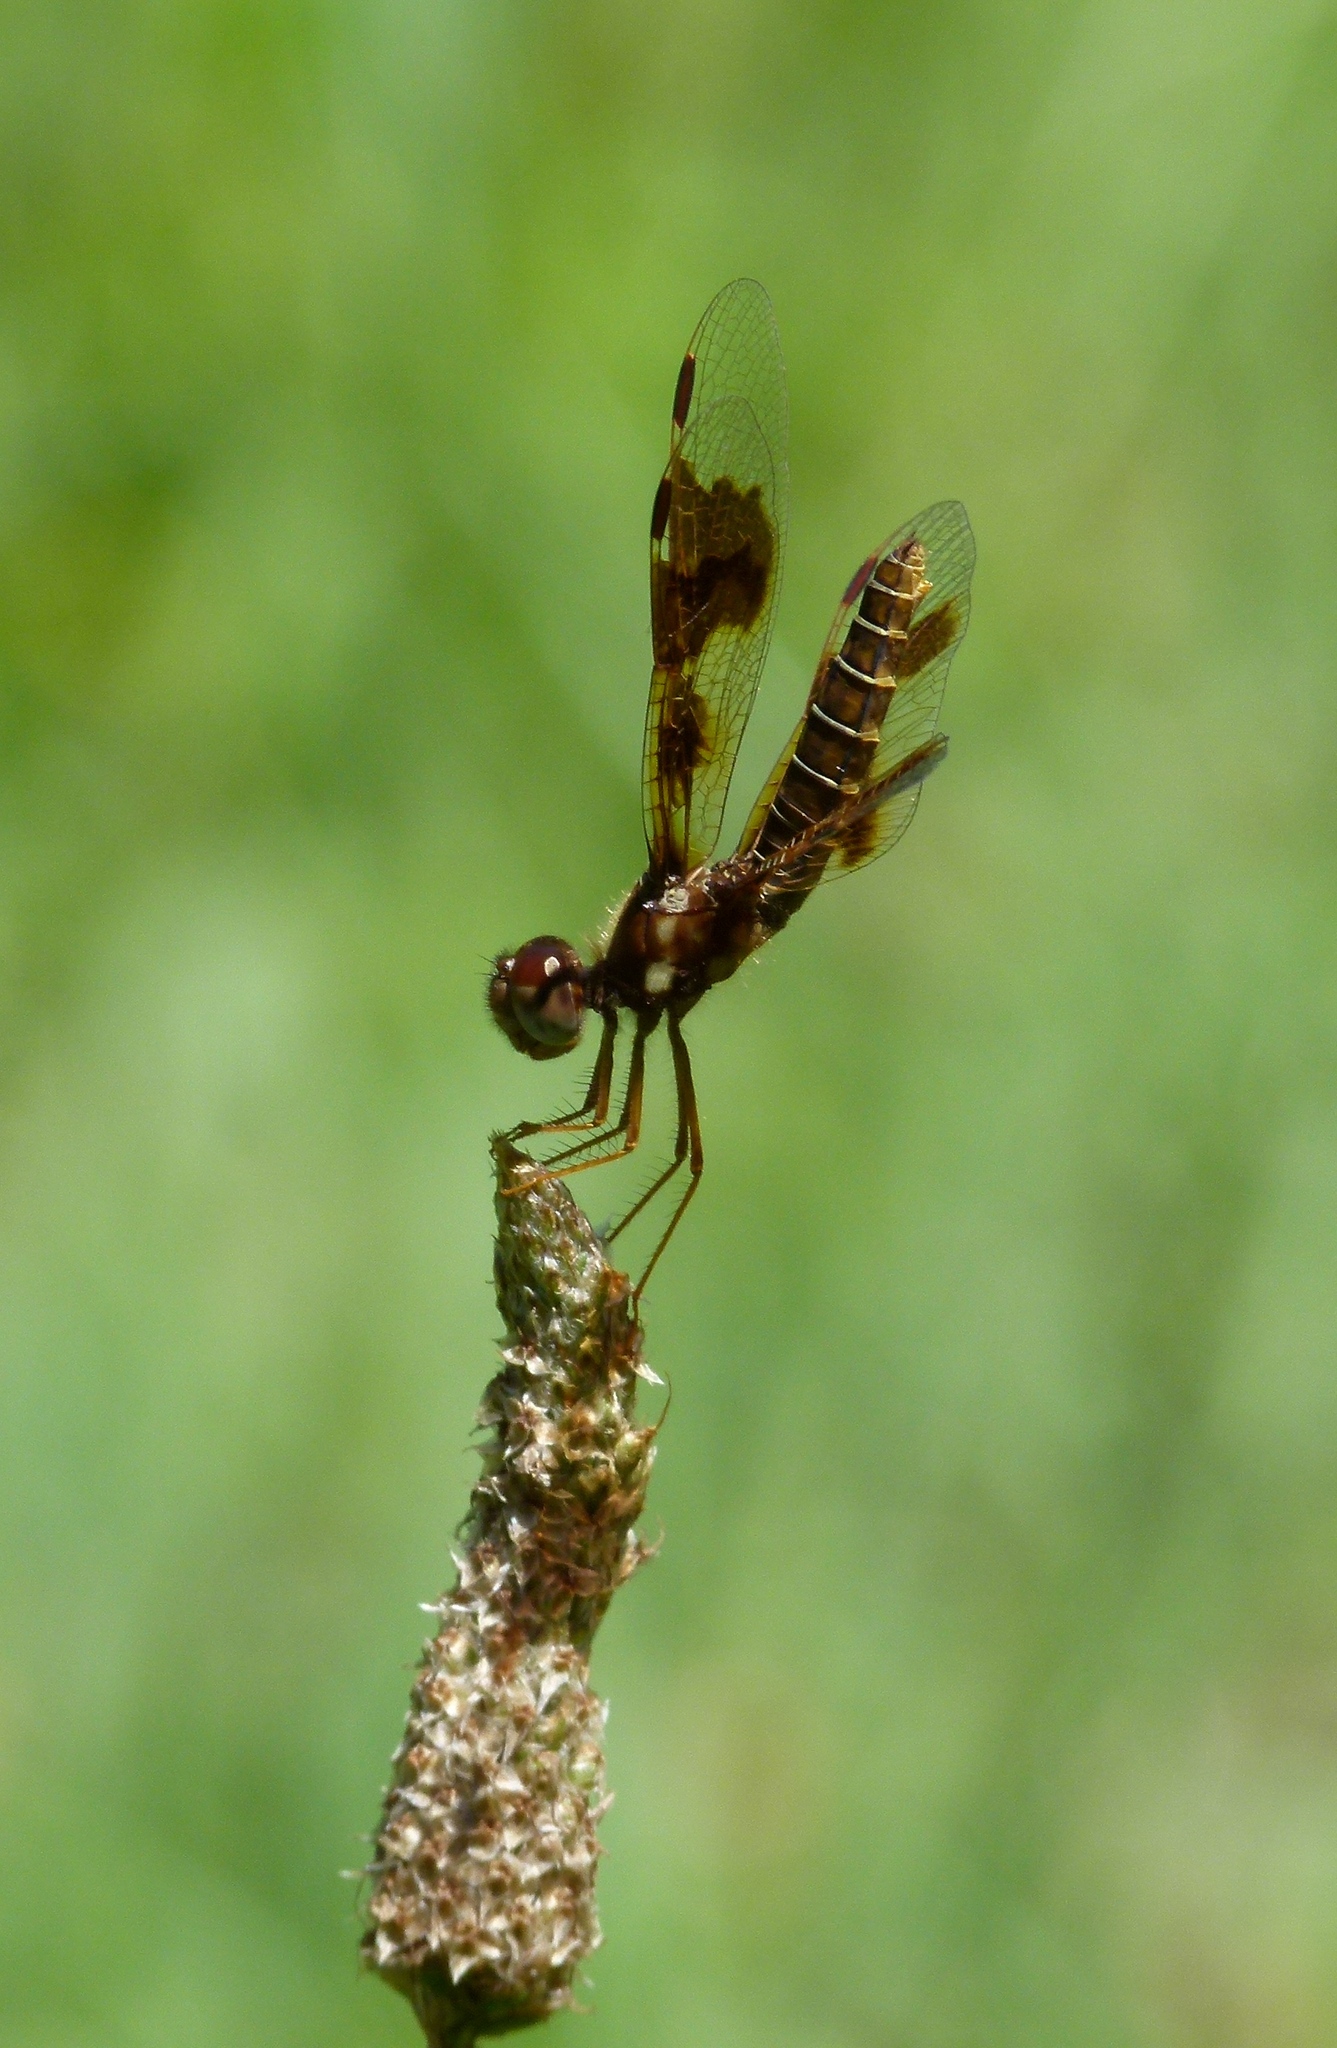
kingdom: Animalia
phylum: Arthropoda
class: Insecta
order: Odonata
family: Libellulidae
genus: Perithemis
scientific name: Perithemis tenera
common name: Eastern amberwing
